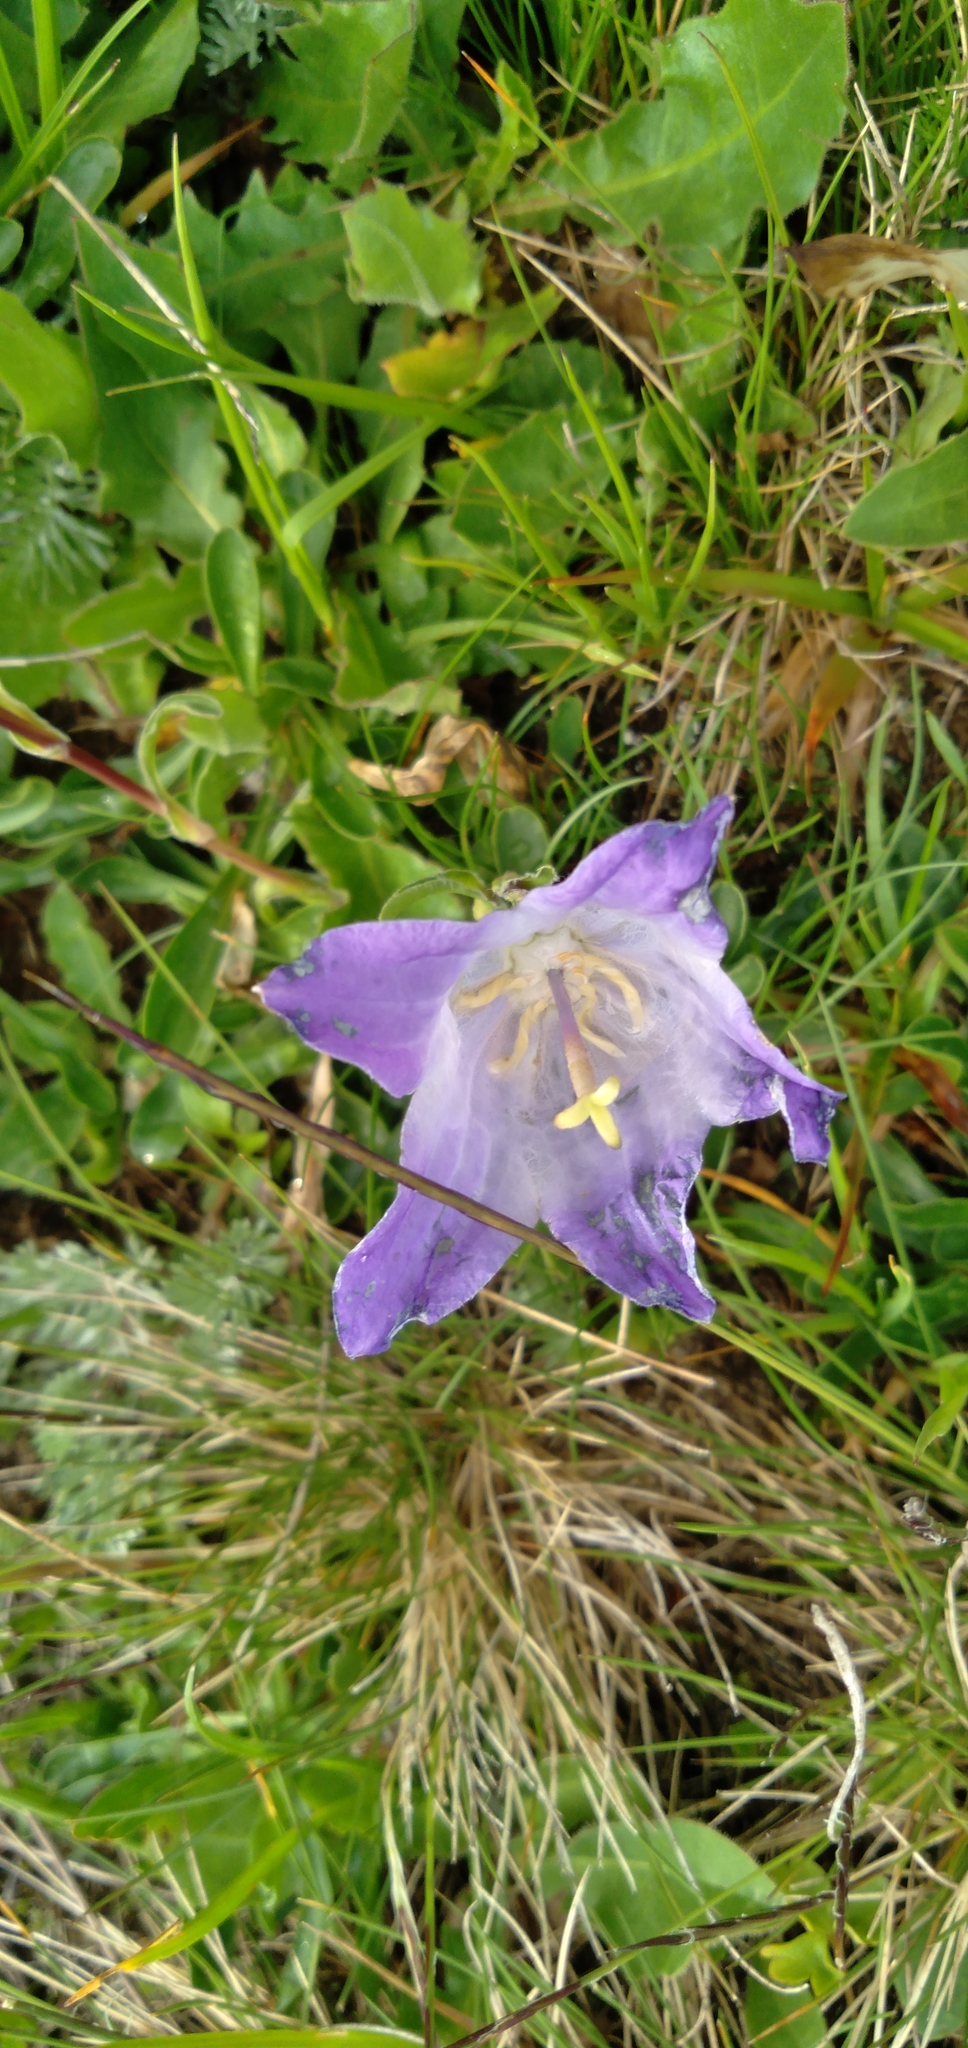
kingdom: Plantae
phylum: Tracheophyta
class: Magnoliopsida
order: Asterales
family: Campanulaceae
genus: Campanula
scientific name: Campanula tridentata
